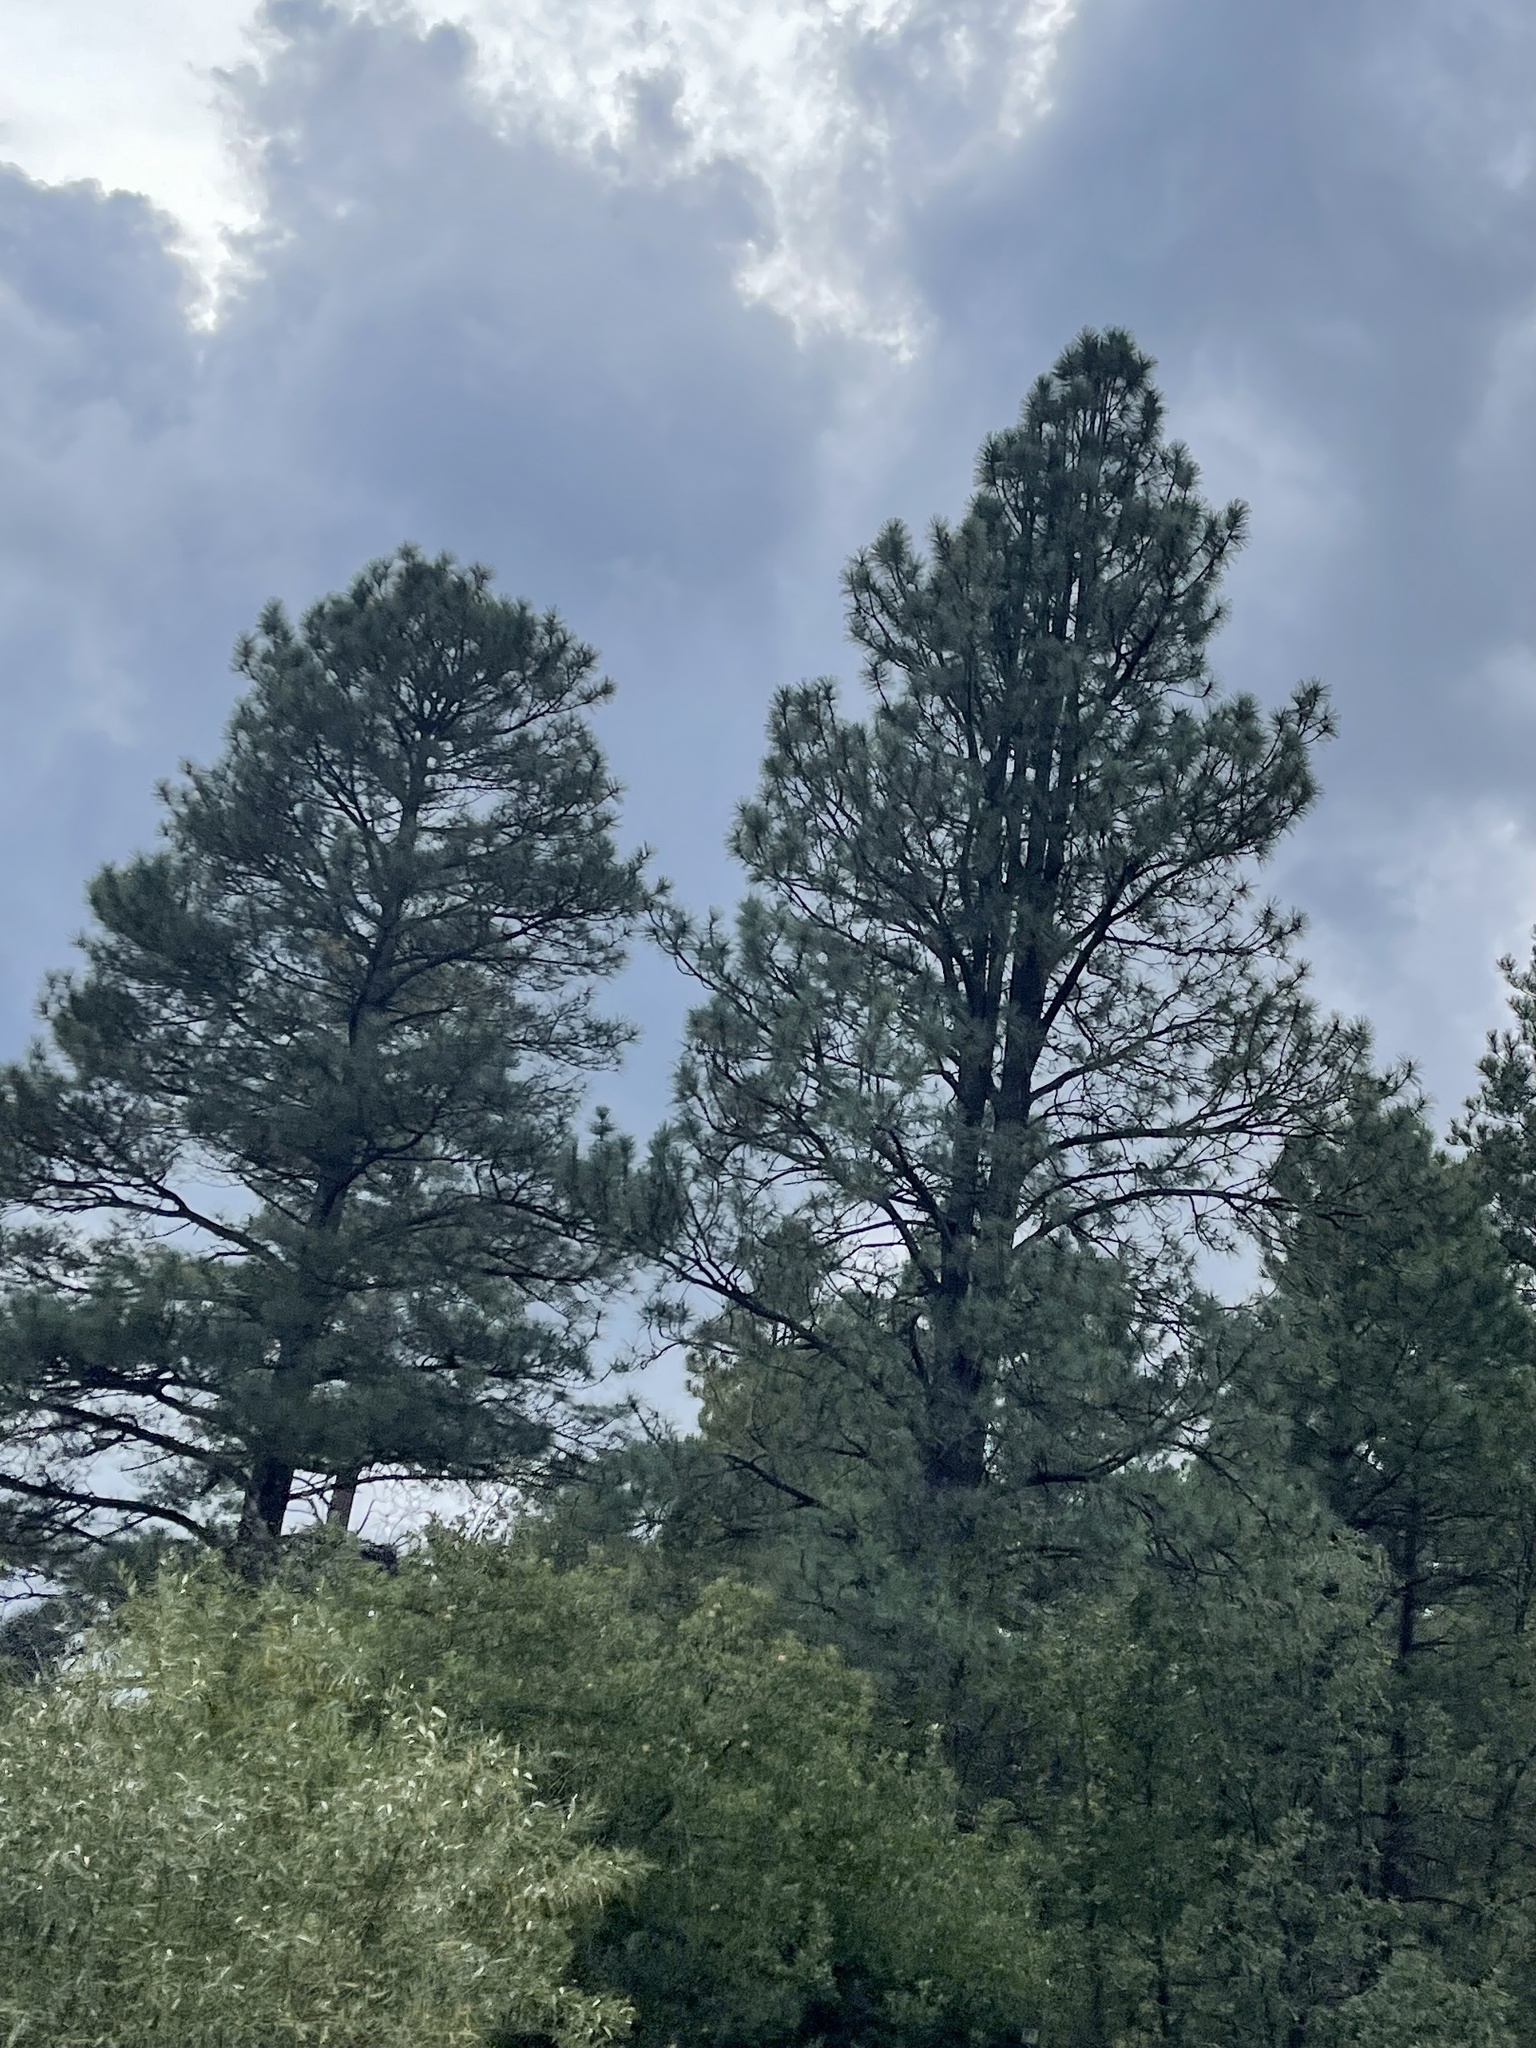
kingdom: Plantae
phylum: Tracheophyta
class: Pinopsida
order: Pinales
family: Pinaceae
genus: Pinus
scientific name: Pinus ponderosa
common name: Western yellow-pine
